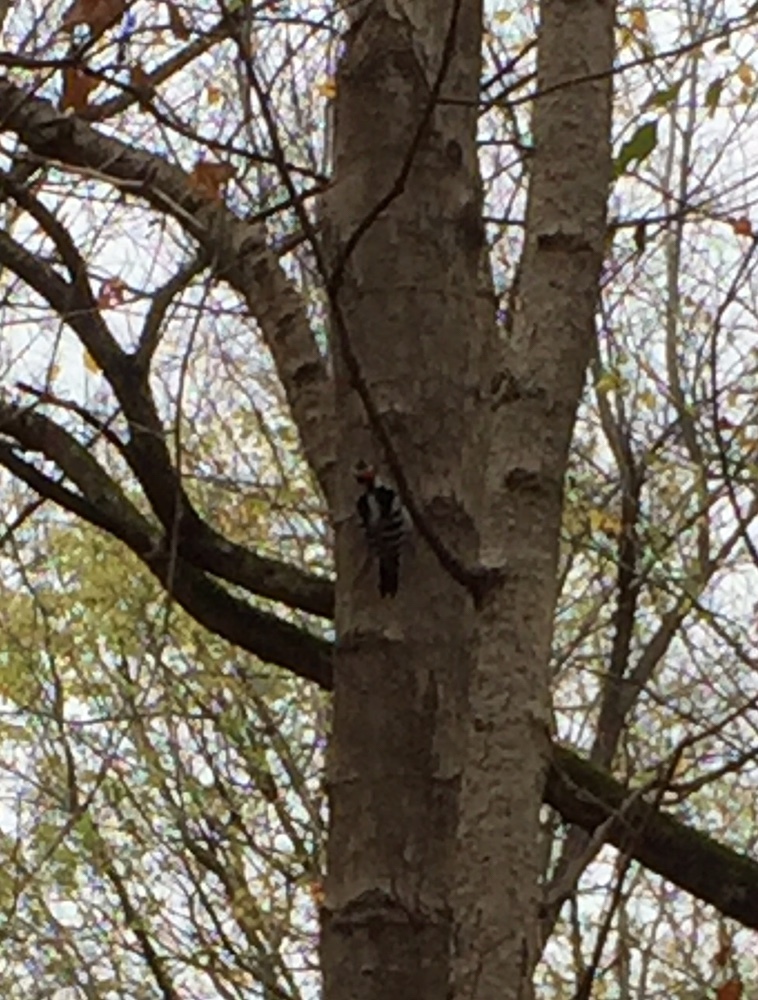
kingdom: Animalia
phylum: Chordata
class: Aves
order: Piciformes
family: Picidae
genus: Leuconotopicus
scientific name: Leuconotopicus villosus
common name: Hairy woodpecker
